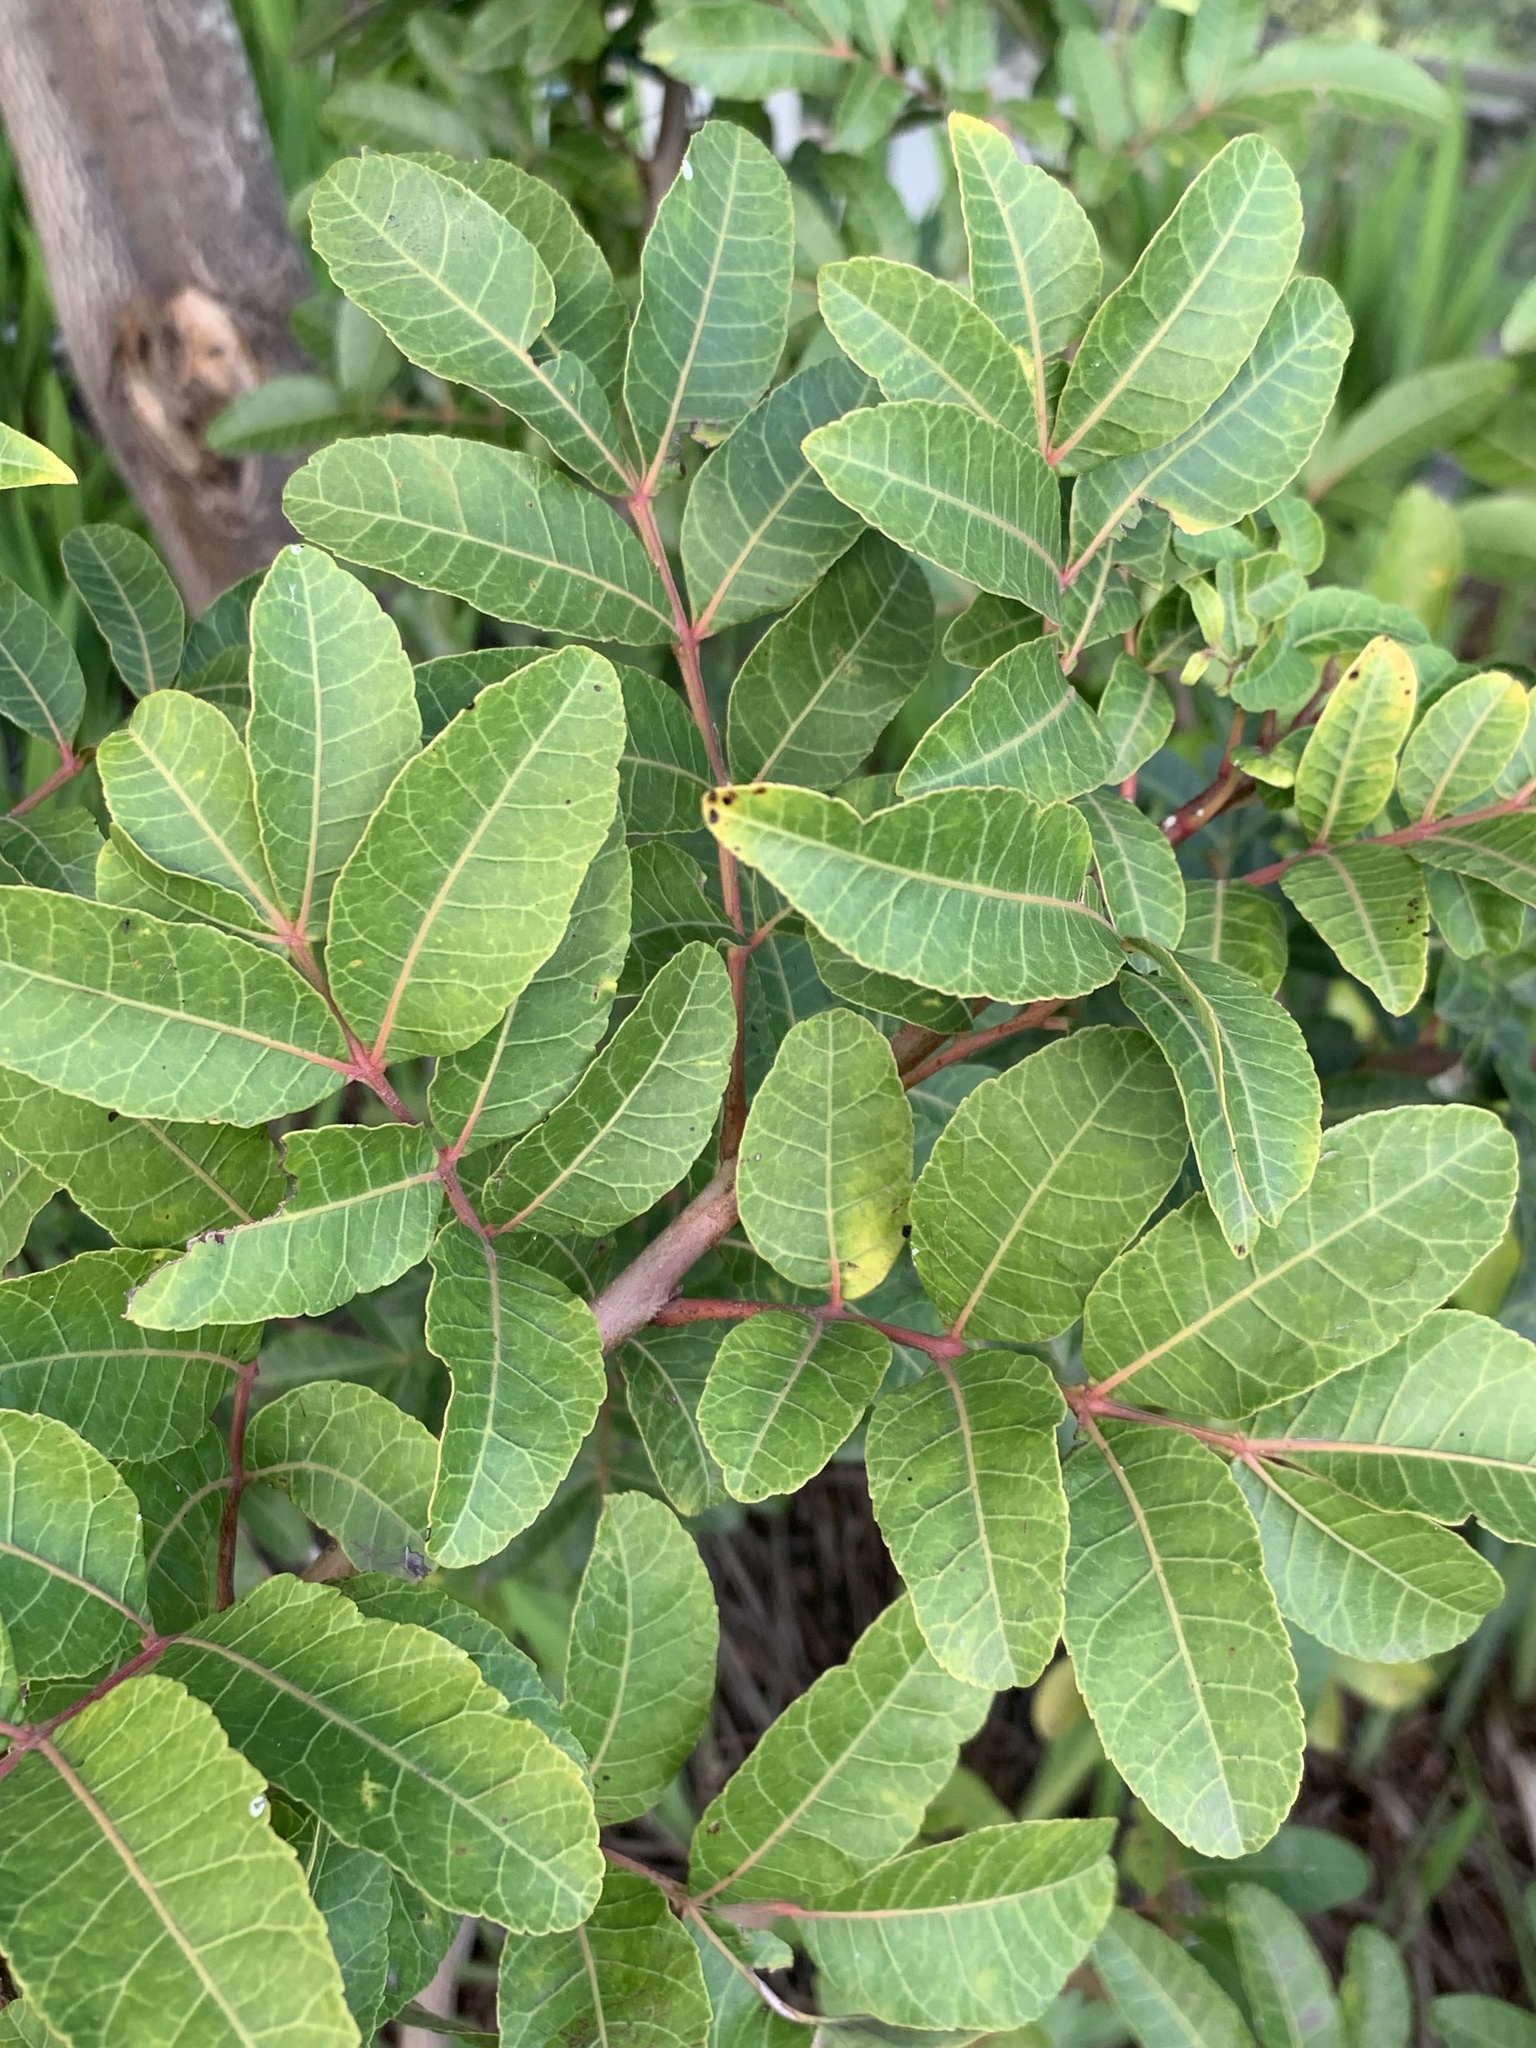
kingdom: Plantae
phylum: Tracheophyta
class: Magnoliopsida
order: Sapindales
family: Anacardiaceae
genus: Schinus
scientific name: Schinus terebinthifolia
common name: Brazilian peppertree
